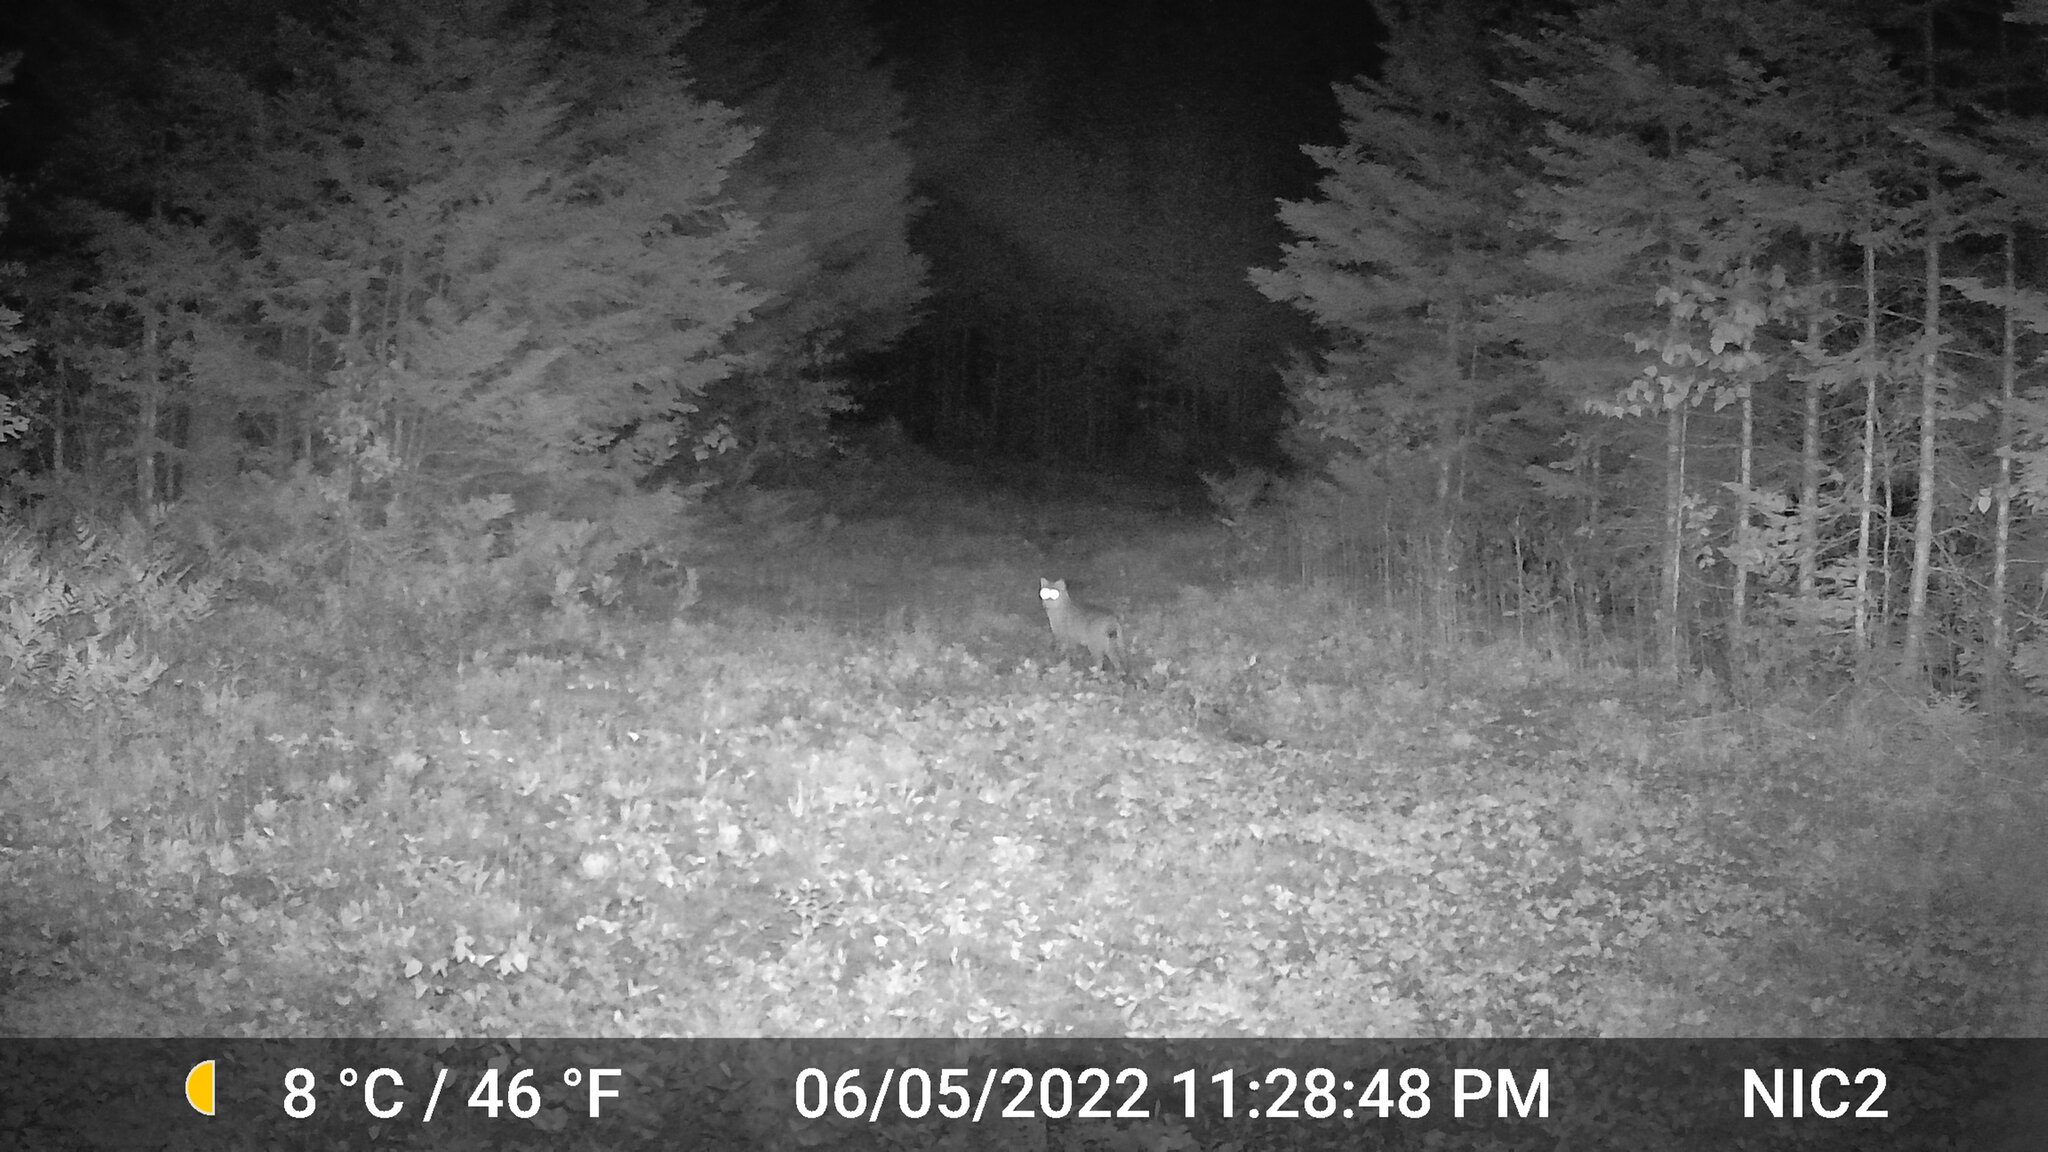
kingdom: Animalia
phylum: Chordata
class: Mammalia
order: Carnivora
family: Felidae
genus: Lynx
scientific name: Lynx rufus
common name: Bobcat
